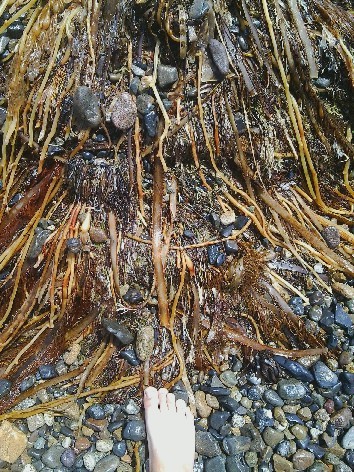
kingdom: Chromista
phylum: Ochrophyta
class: Phaeophyceae
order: Laminariales
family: Lessoniaceae
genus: Egregia
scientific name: Egregia menziesii
